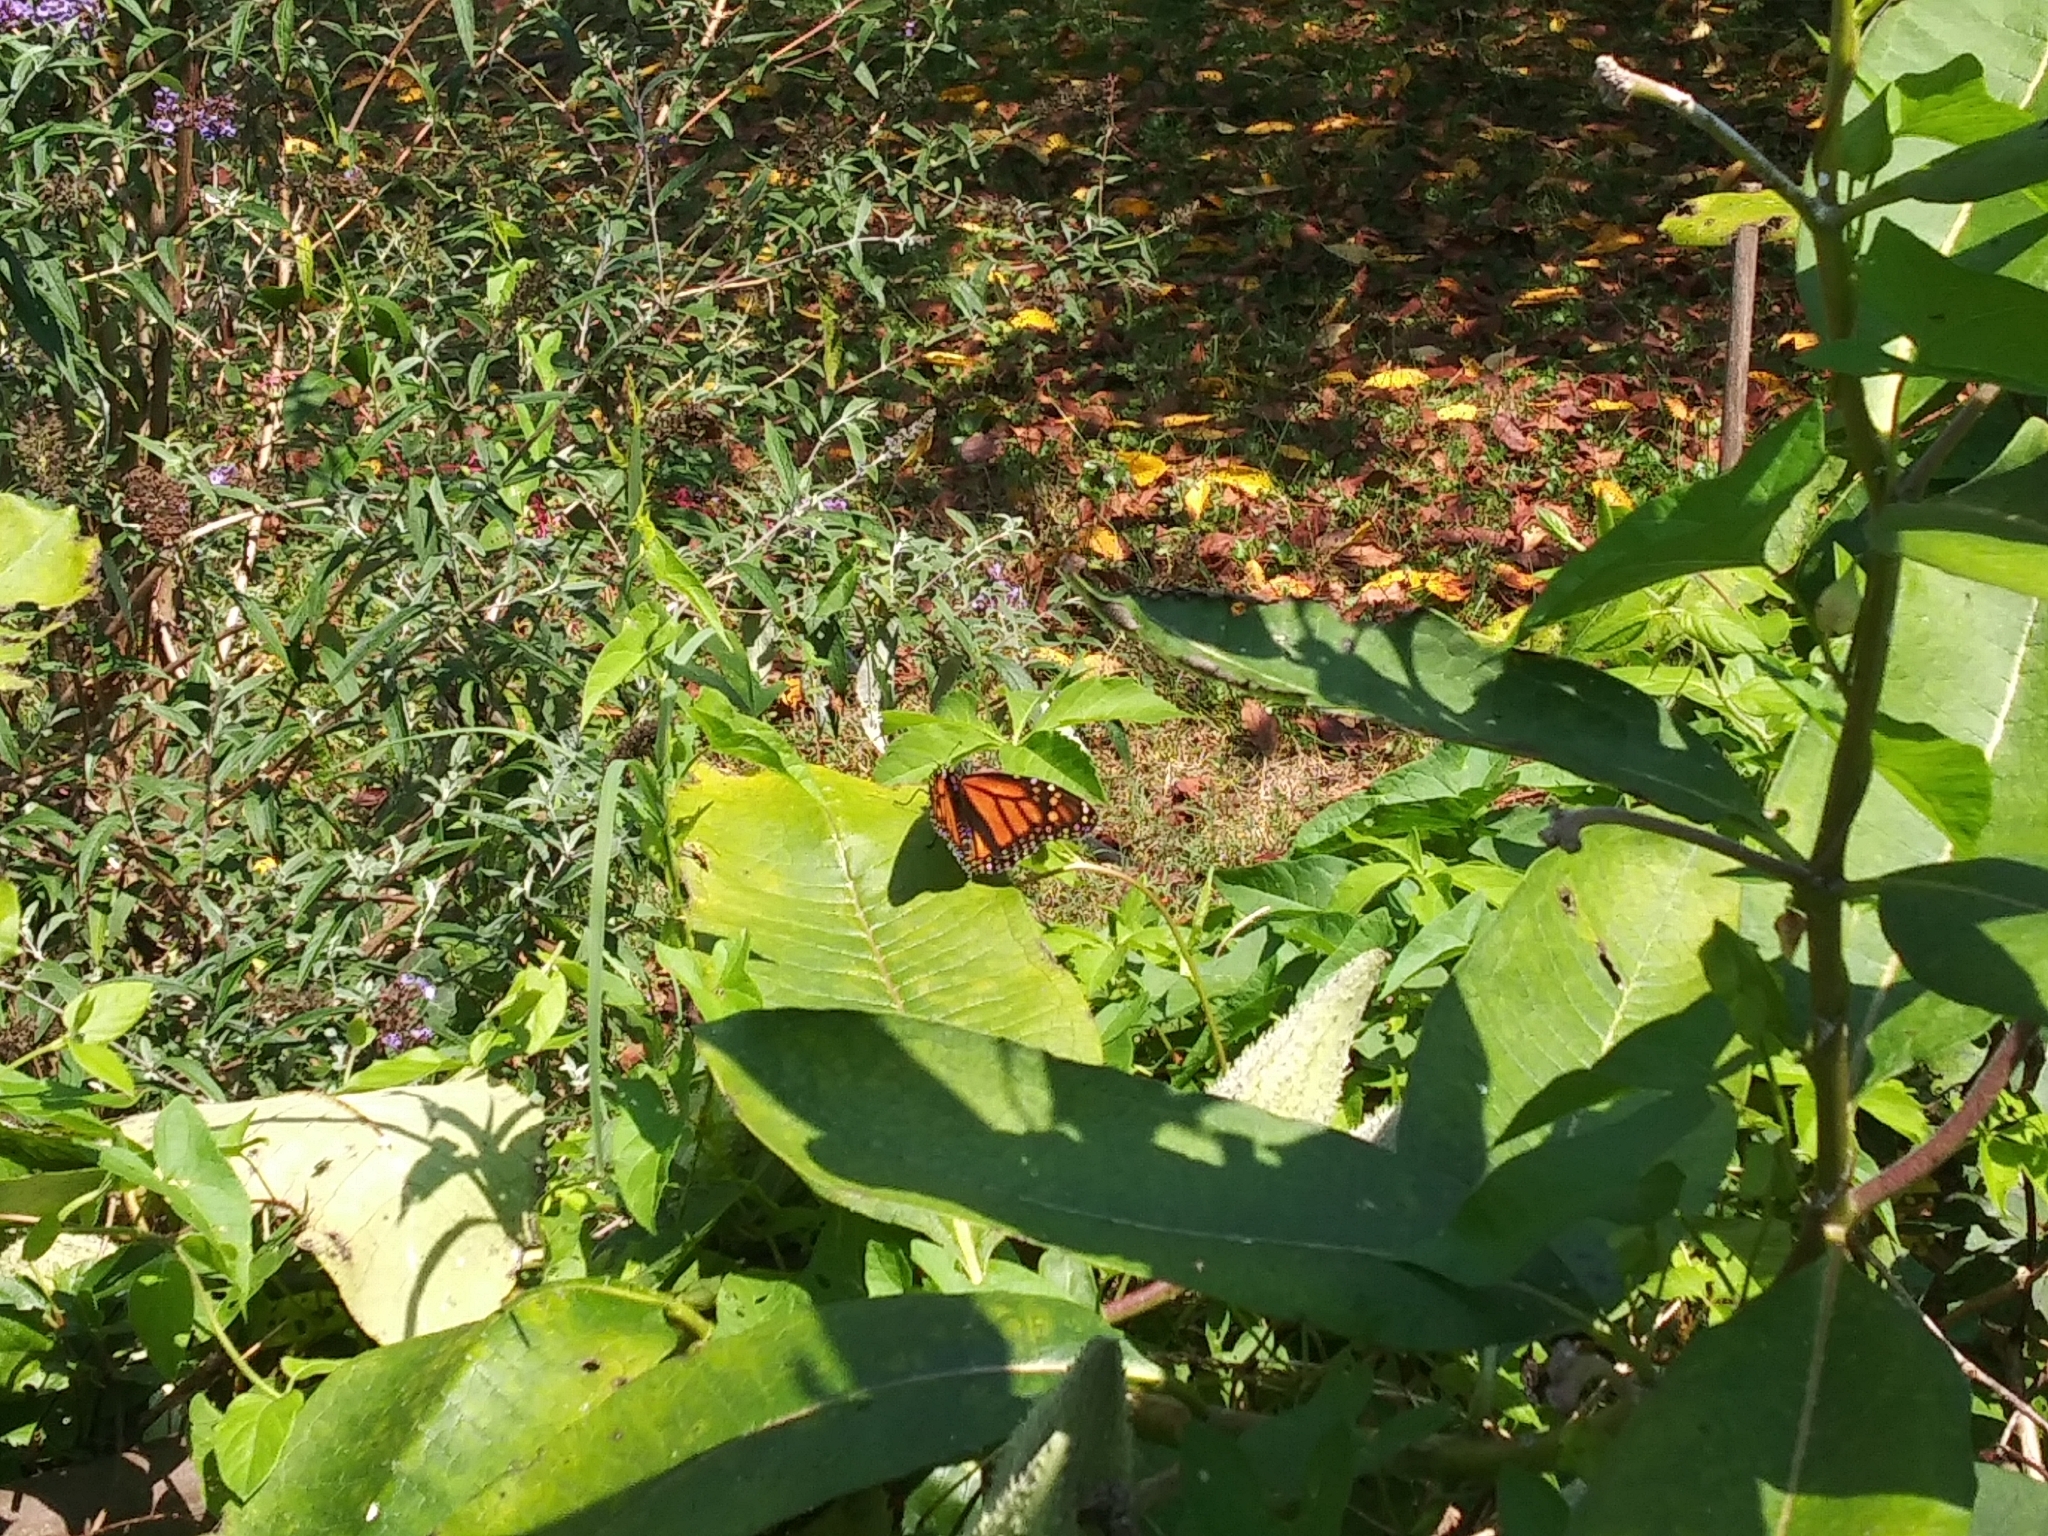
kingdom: Animalia
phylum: Arthropoda
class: Insecta
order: Lepidoptera
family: Nymphalidae
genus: Danaus
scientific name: Danaus plexippus
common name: Monarch
